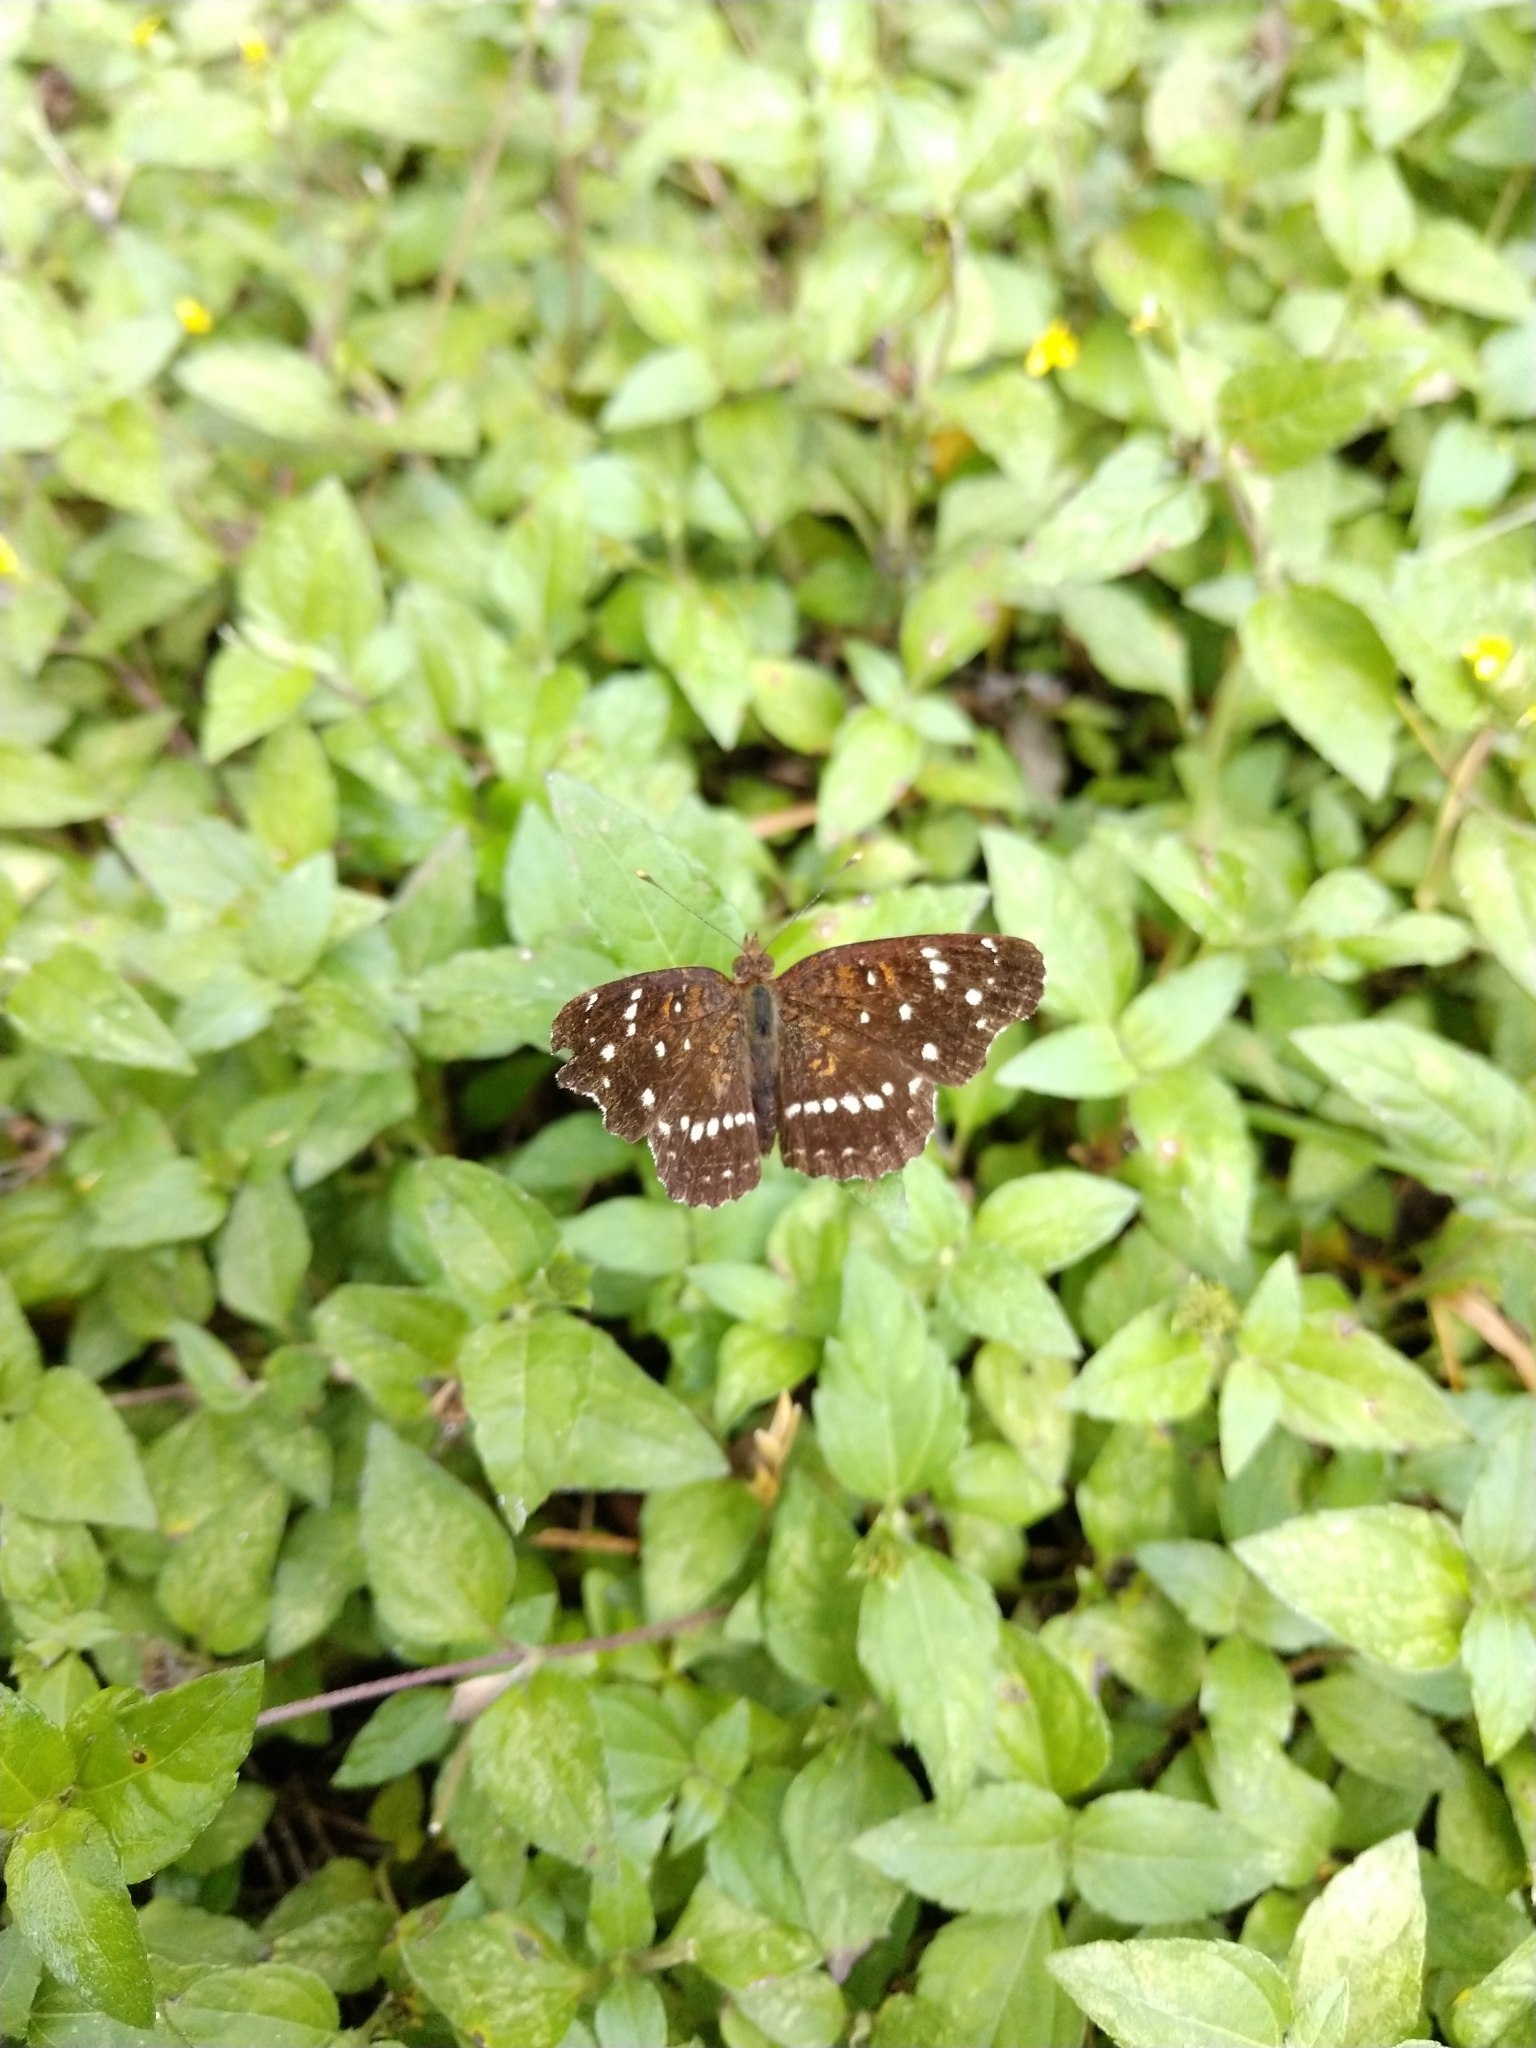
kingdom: Animalia
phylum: Arthropoda
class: Insecta
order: Lepidoptera
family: Nymphalidae
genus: Anthanassa
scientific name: Anthanassa texana
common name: Texan crescent
